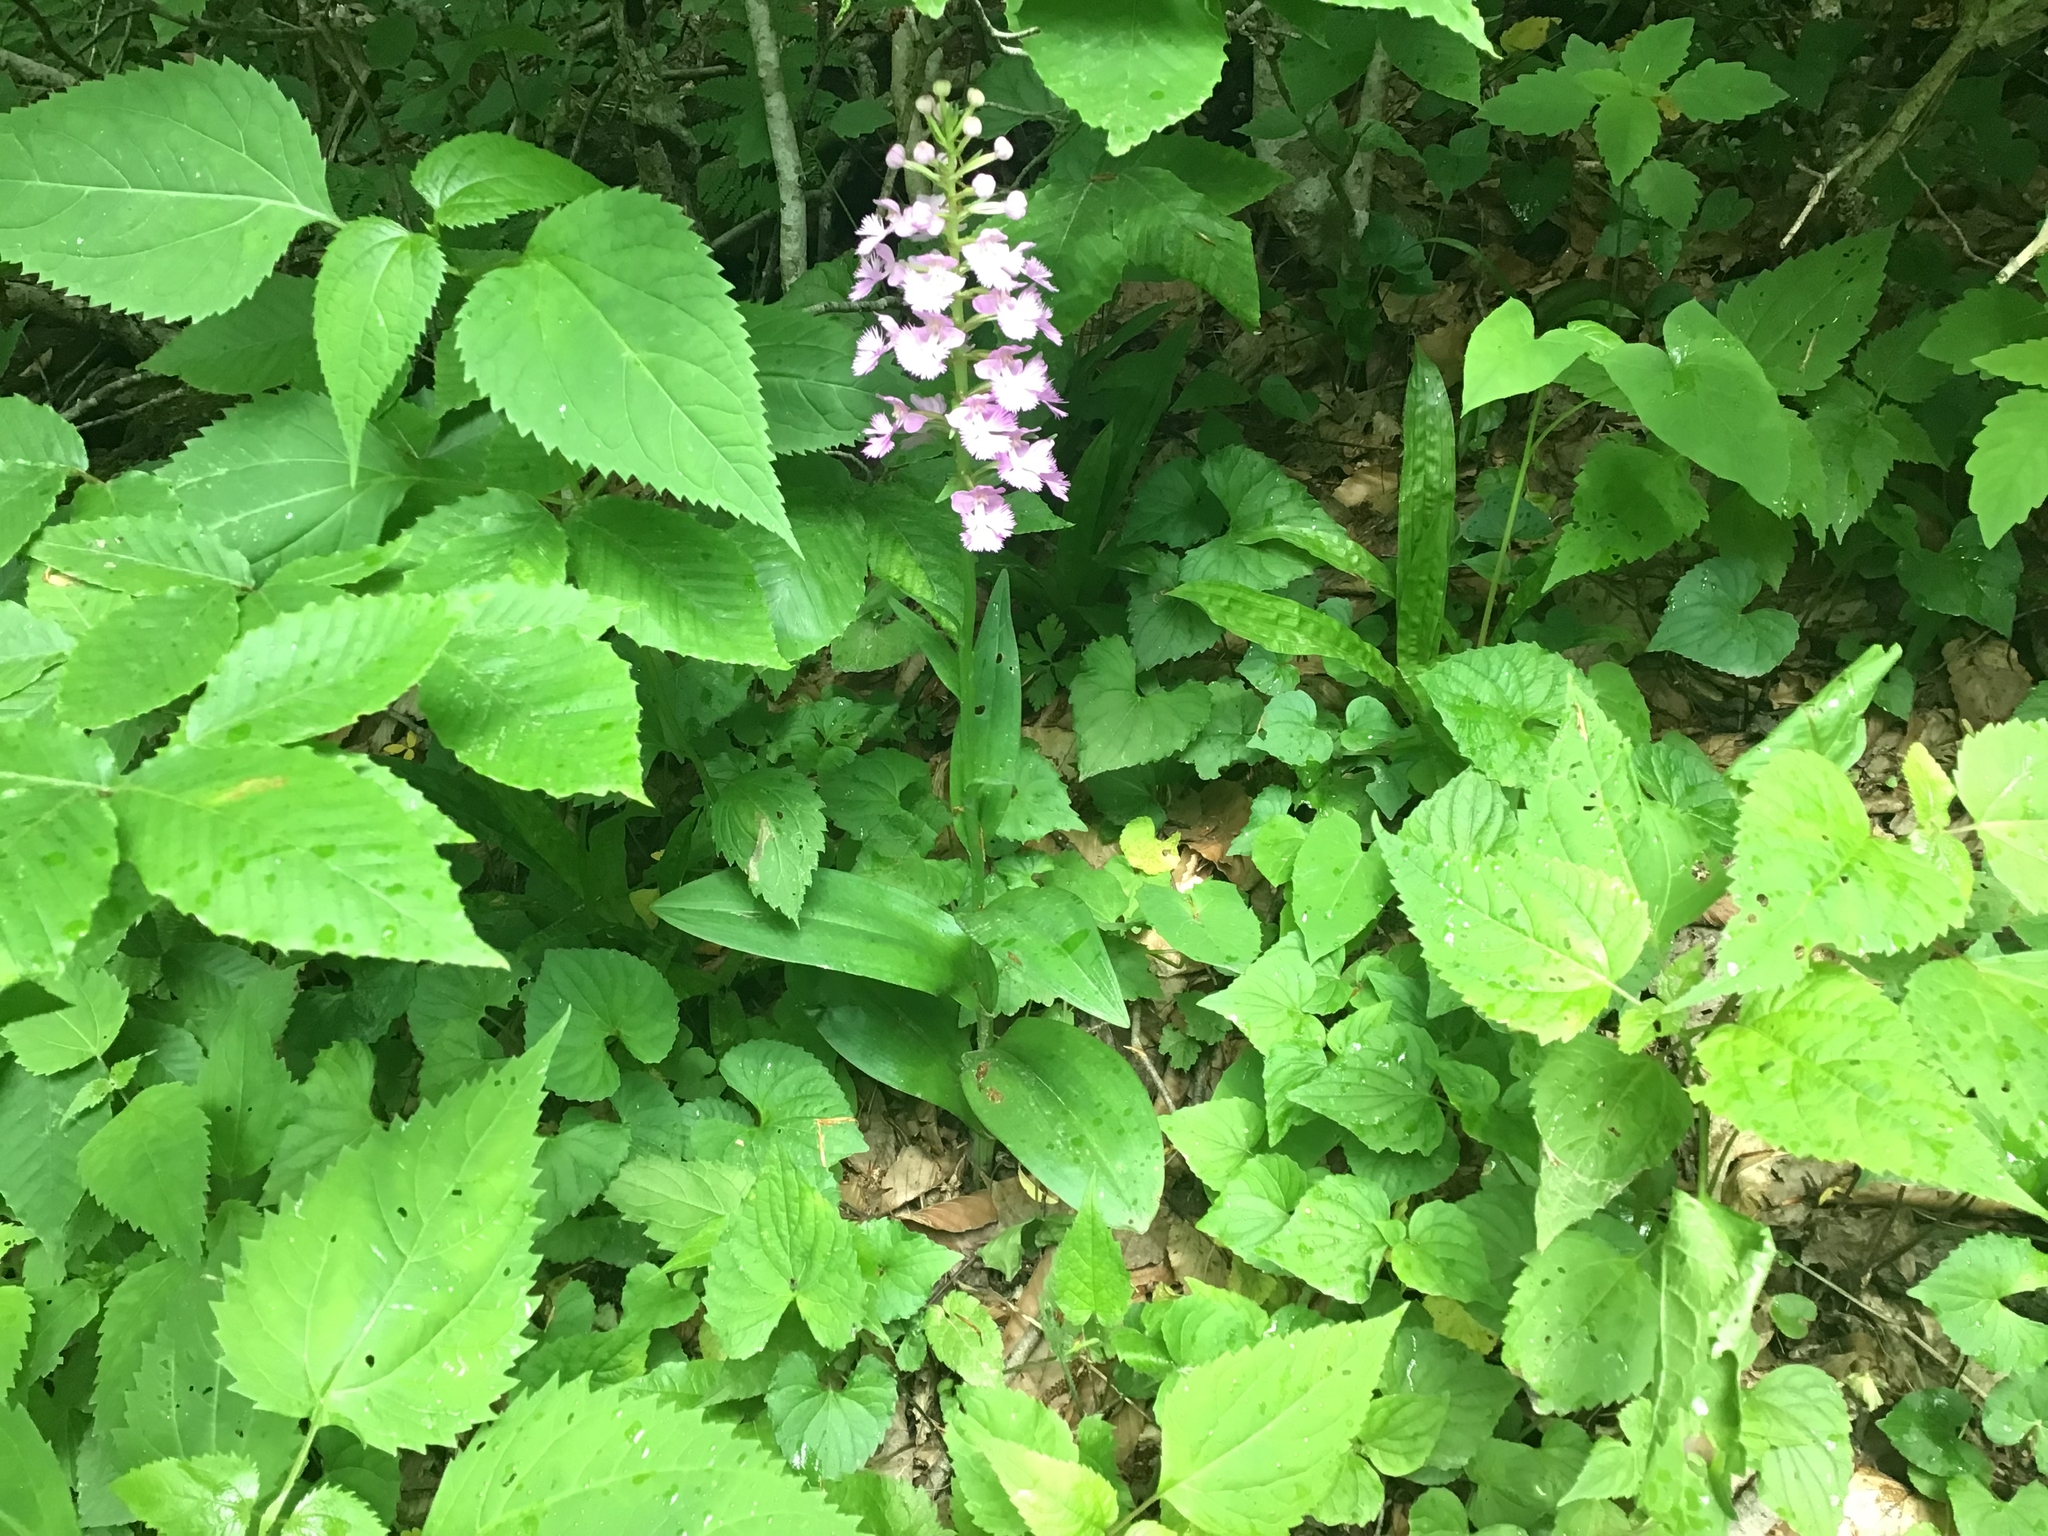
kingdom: Plantae
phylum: Tracheophyta
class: Liliopsida
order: Asparagales
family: Orchidaceae
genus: Platanthera
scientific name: Platanthera grandiflora
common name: Greater purple fringed orchid
